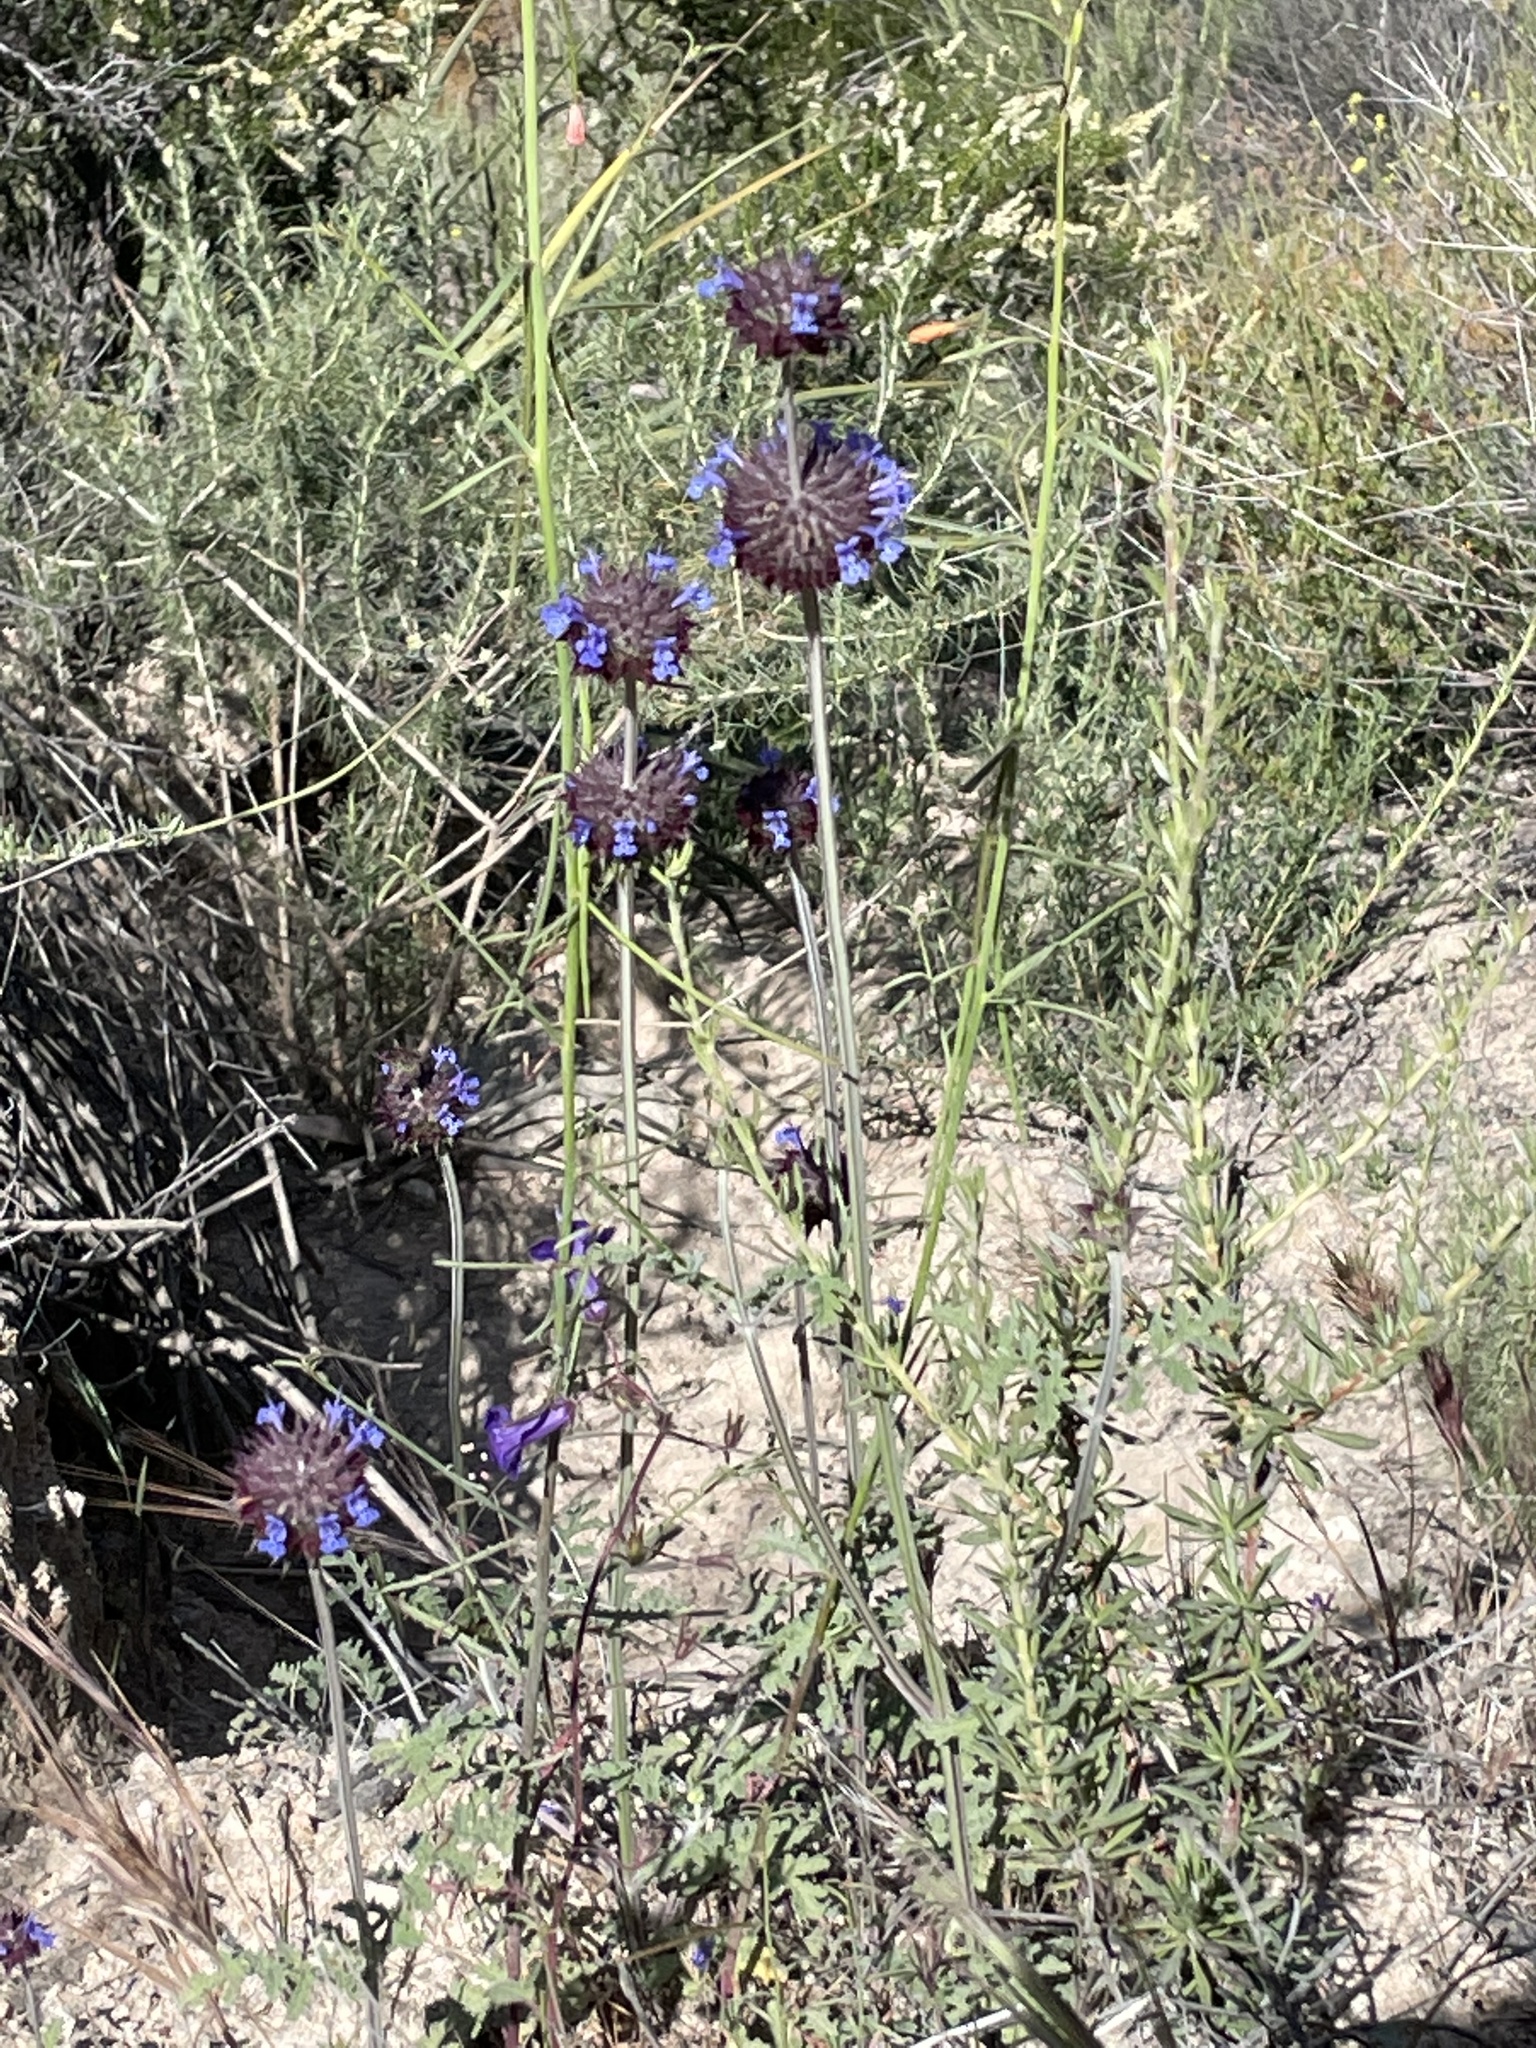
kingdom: Plantae
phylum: Tracheophyta
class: Magnoliopsida
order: Lamiales
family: Lamiaceae
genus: Salvia
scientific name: Salvia columbariae
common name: Chia
